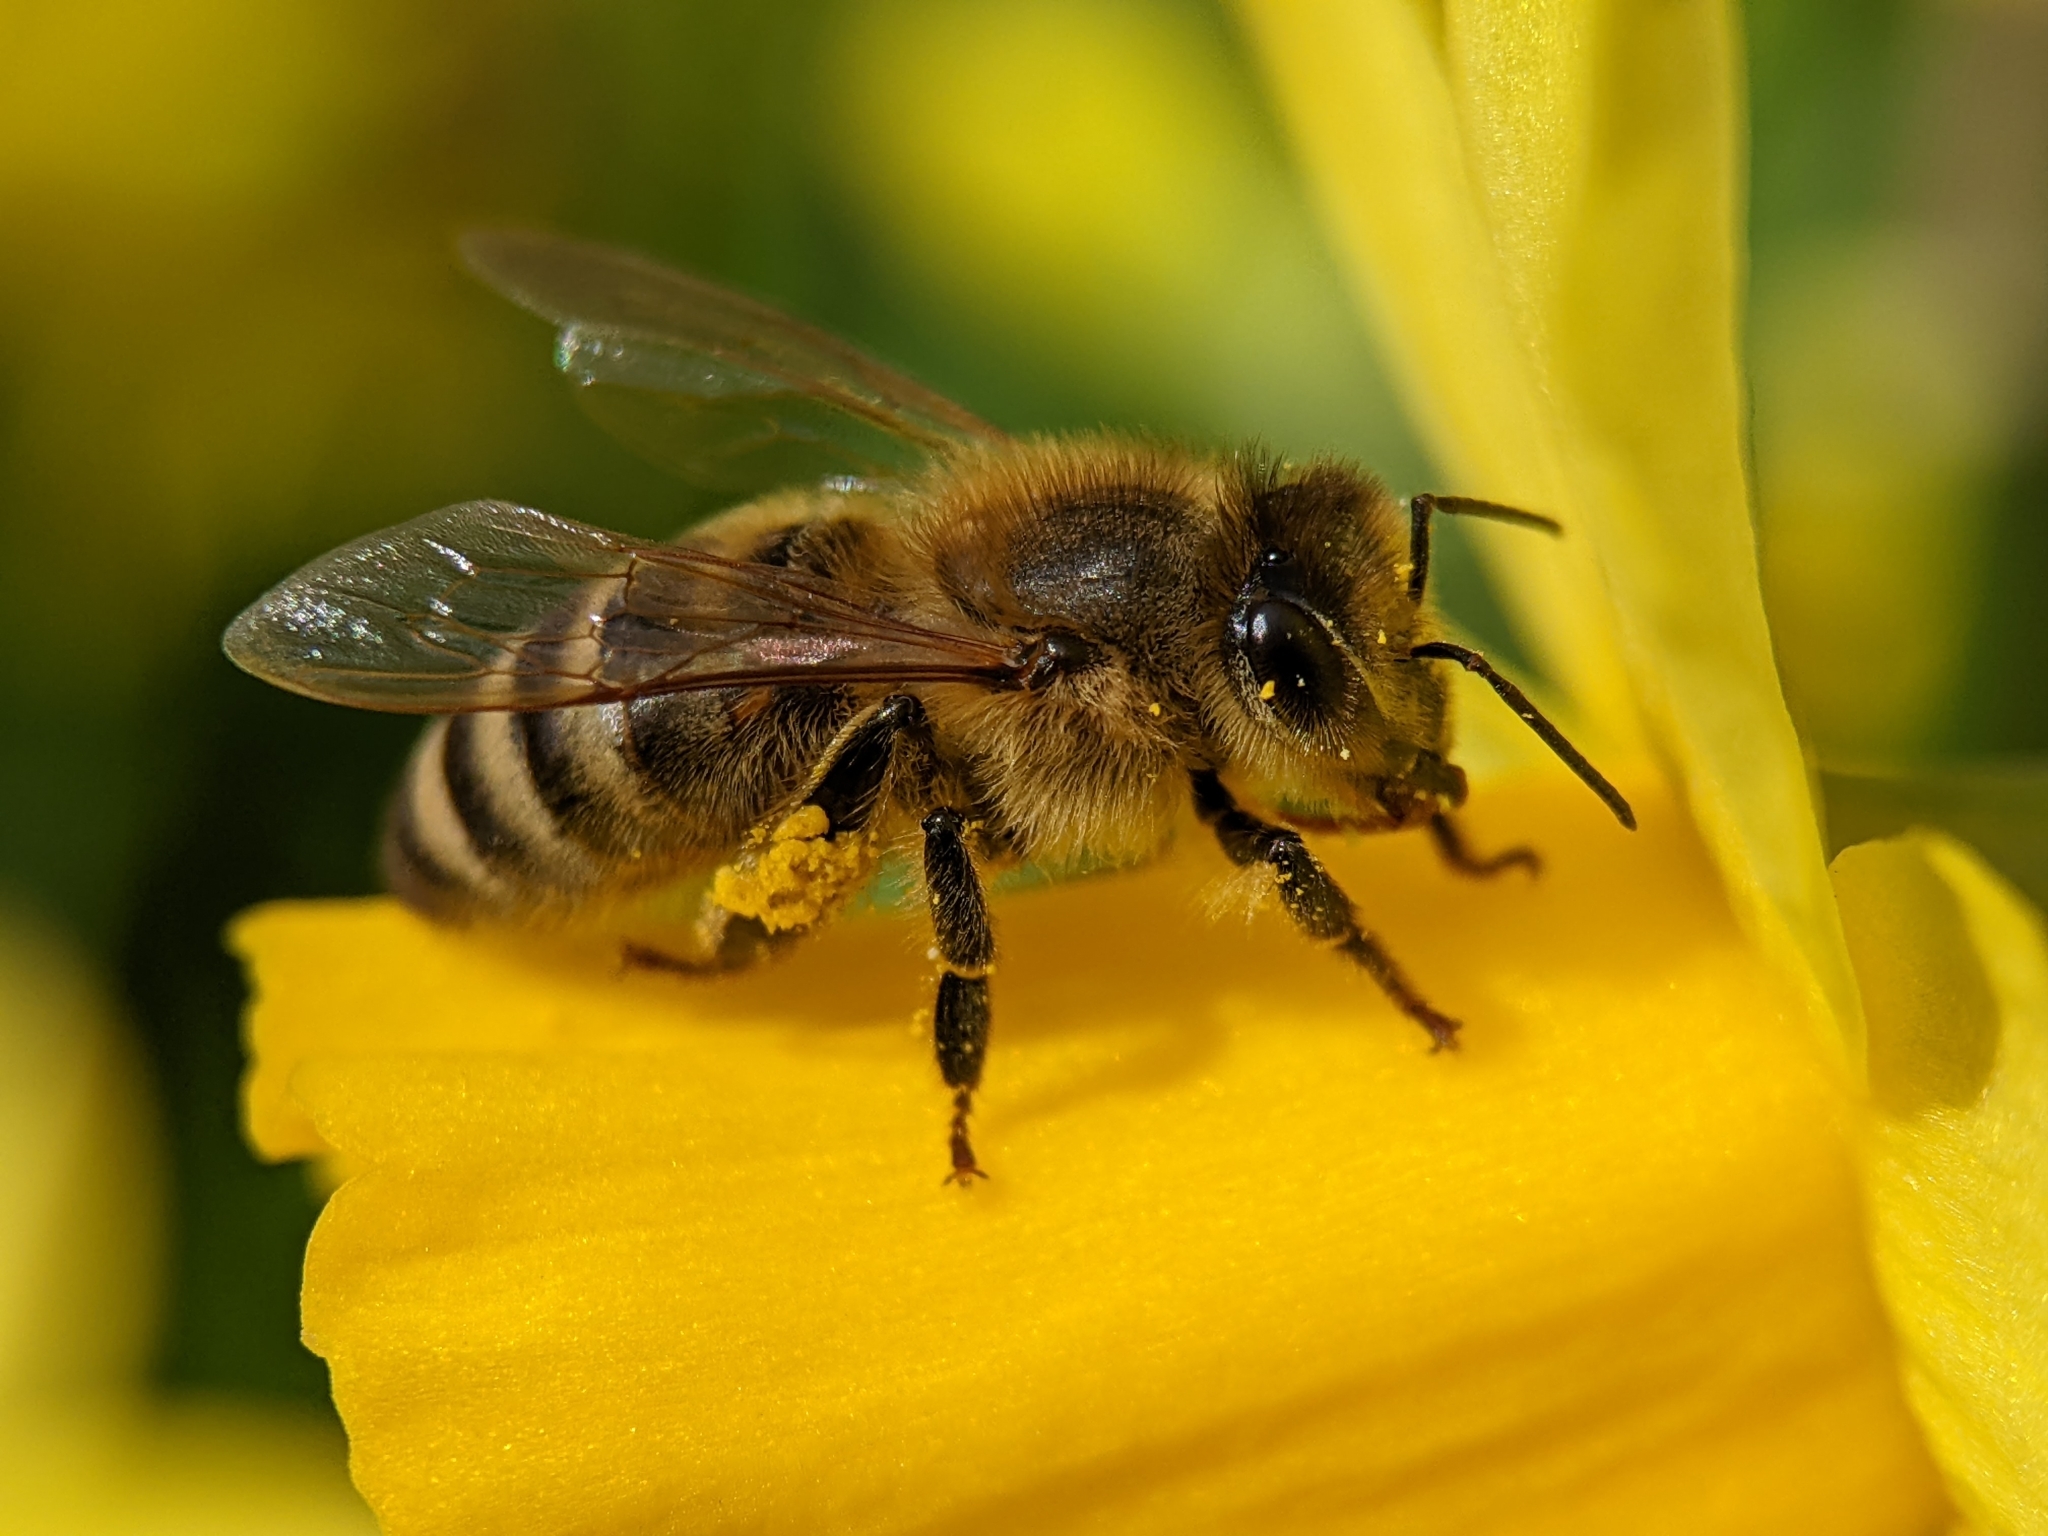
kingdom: Animalia
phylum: Arthropoda
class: Insecta
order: Hymenoptera
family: Apidae
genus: Apis
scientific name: Apis mellifera
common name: Honey bee
